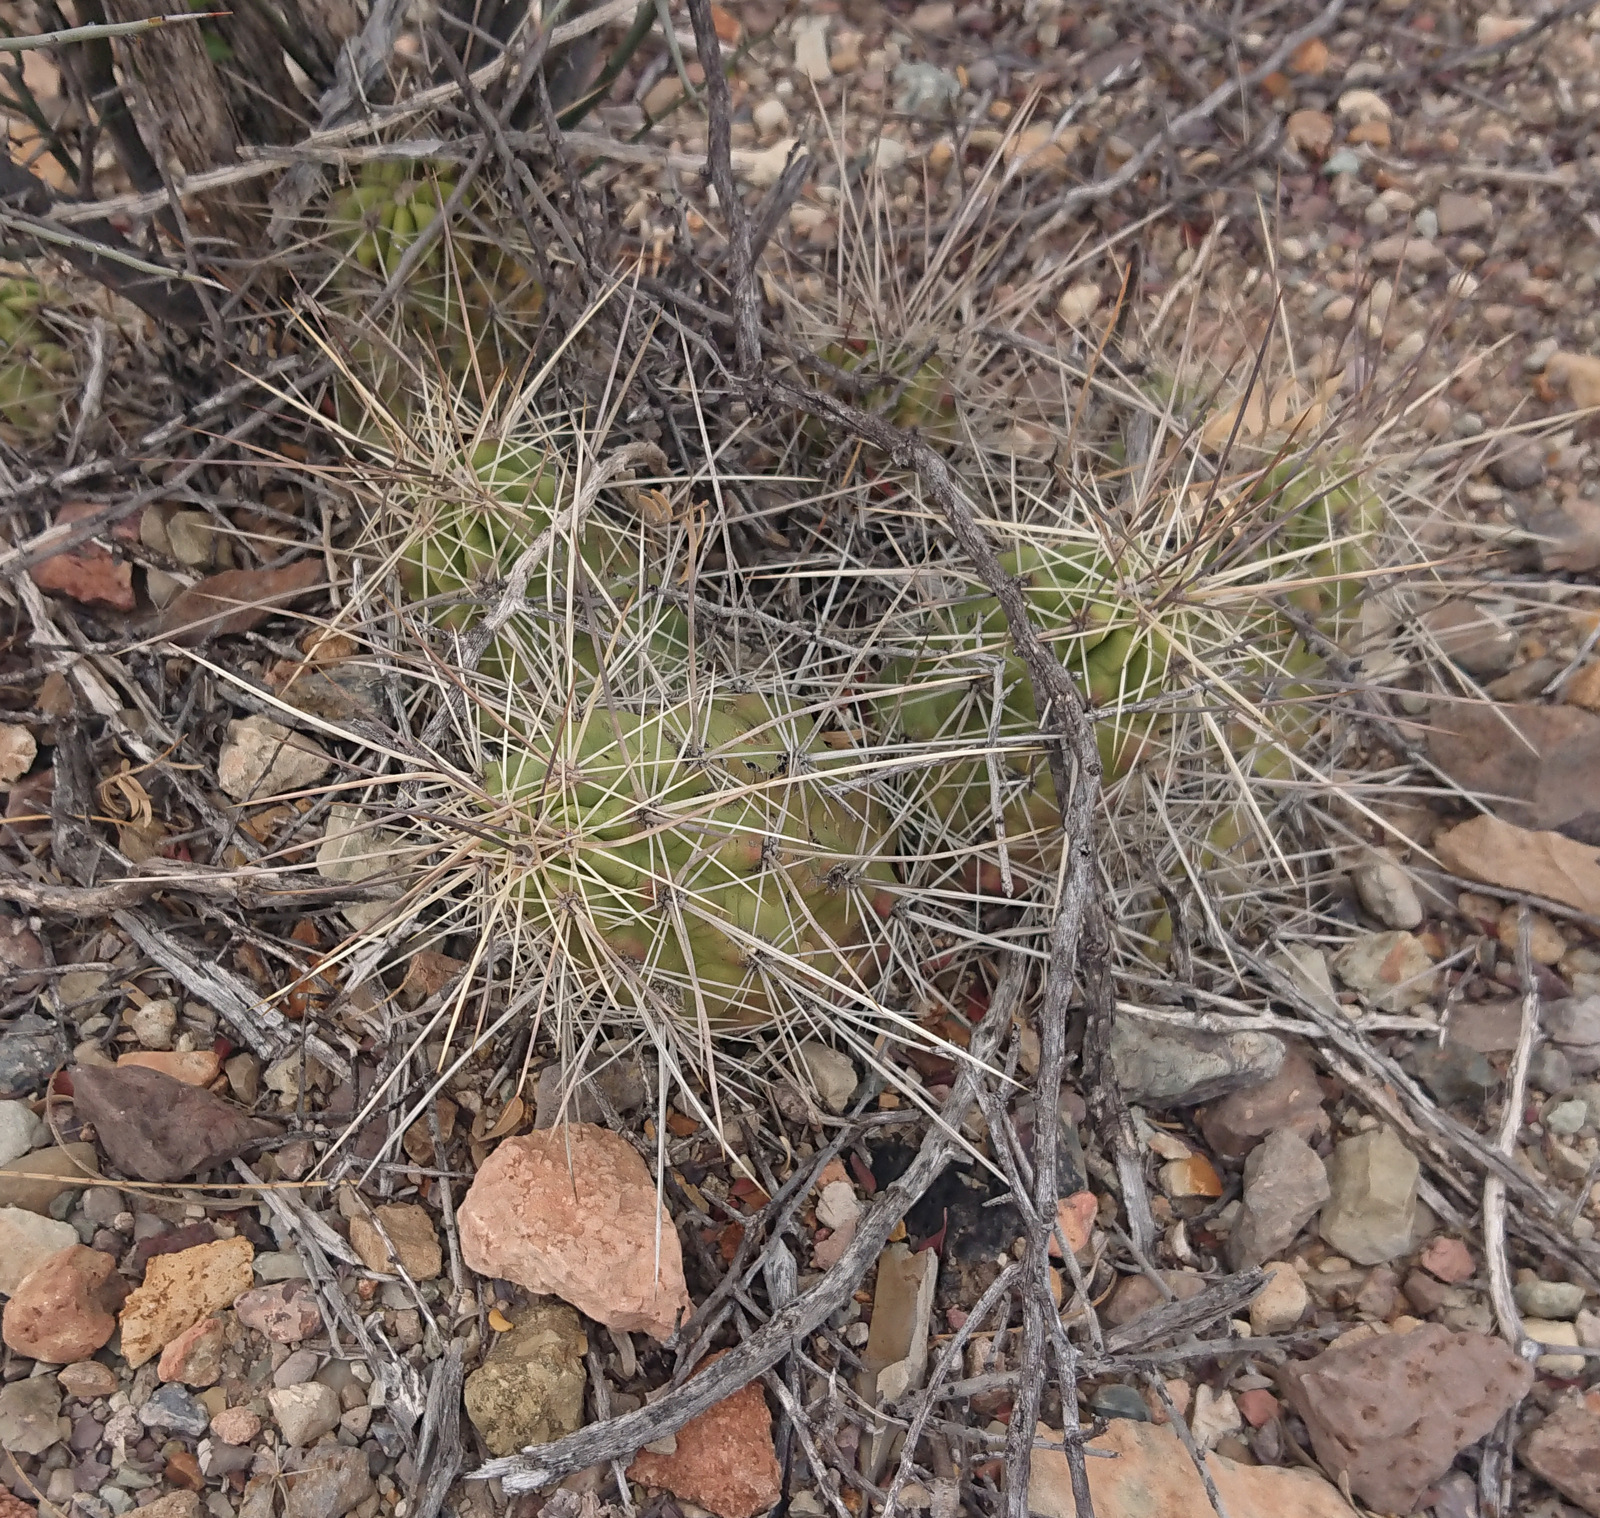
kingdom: Plantae
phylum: Tracheophyta
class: Magnoliopsida
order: Caryophyllales
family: Cactaceae
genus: Echinocereus
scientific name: Echinocereus enneacanthus
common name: Pitaya
